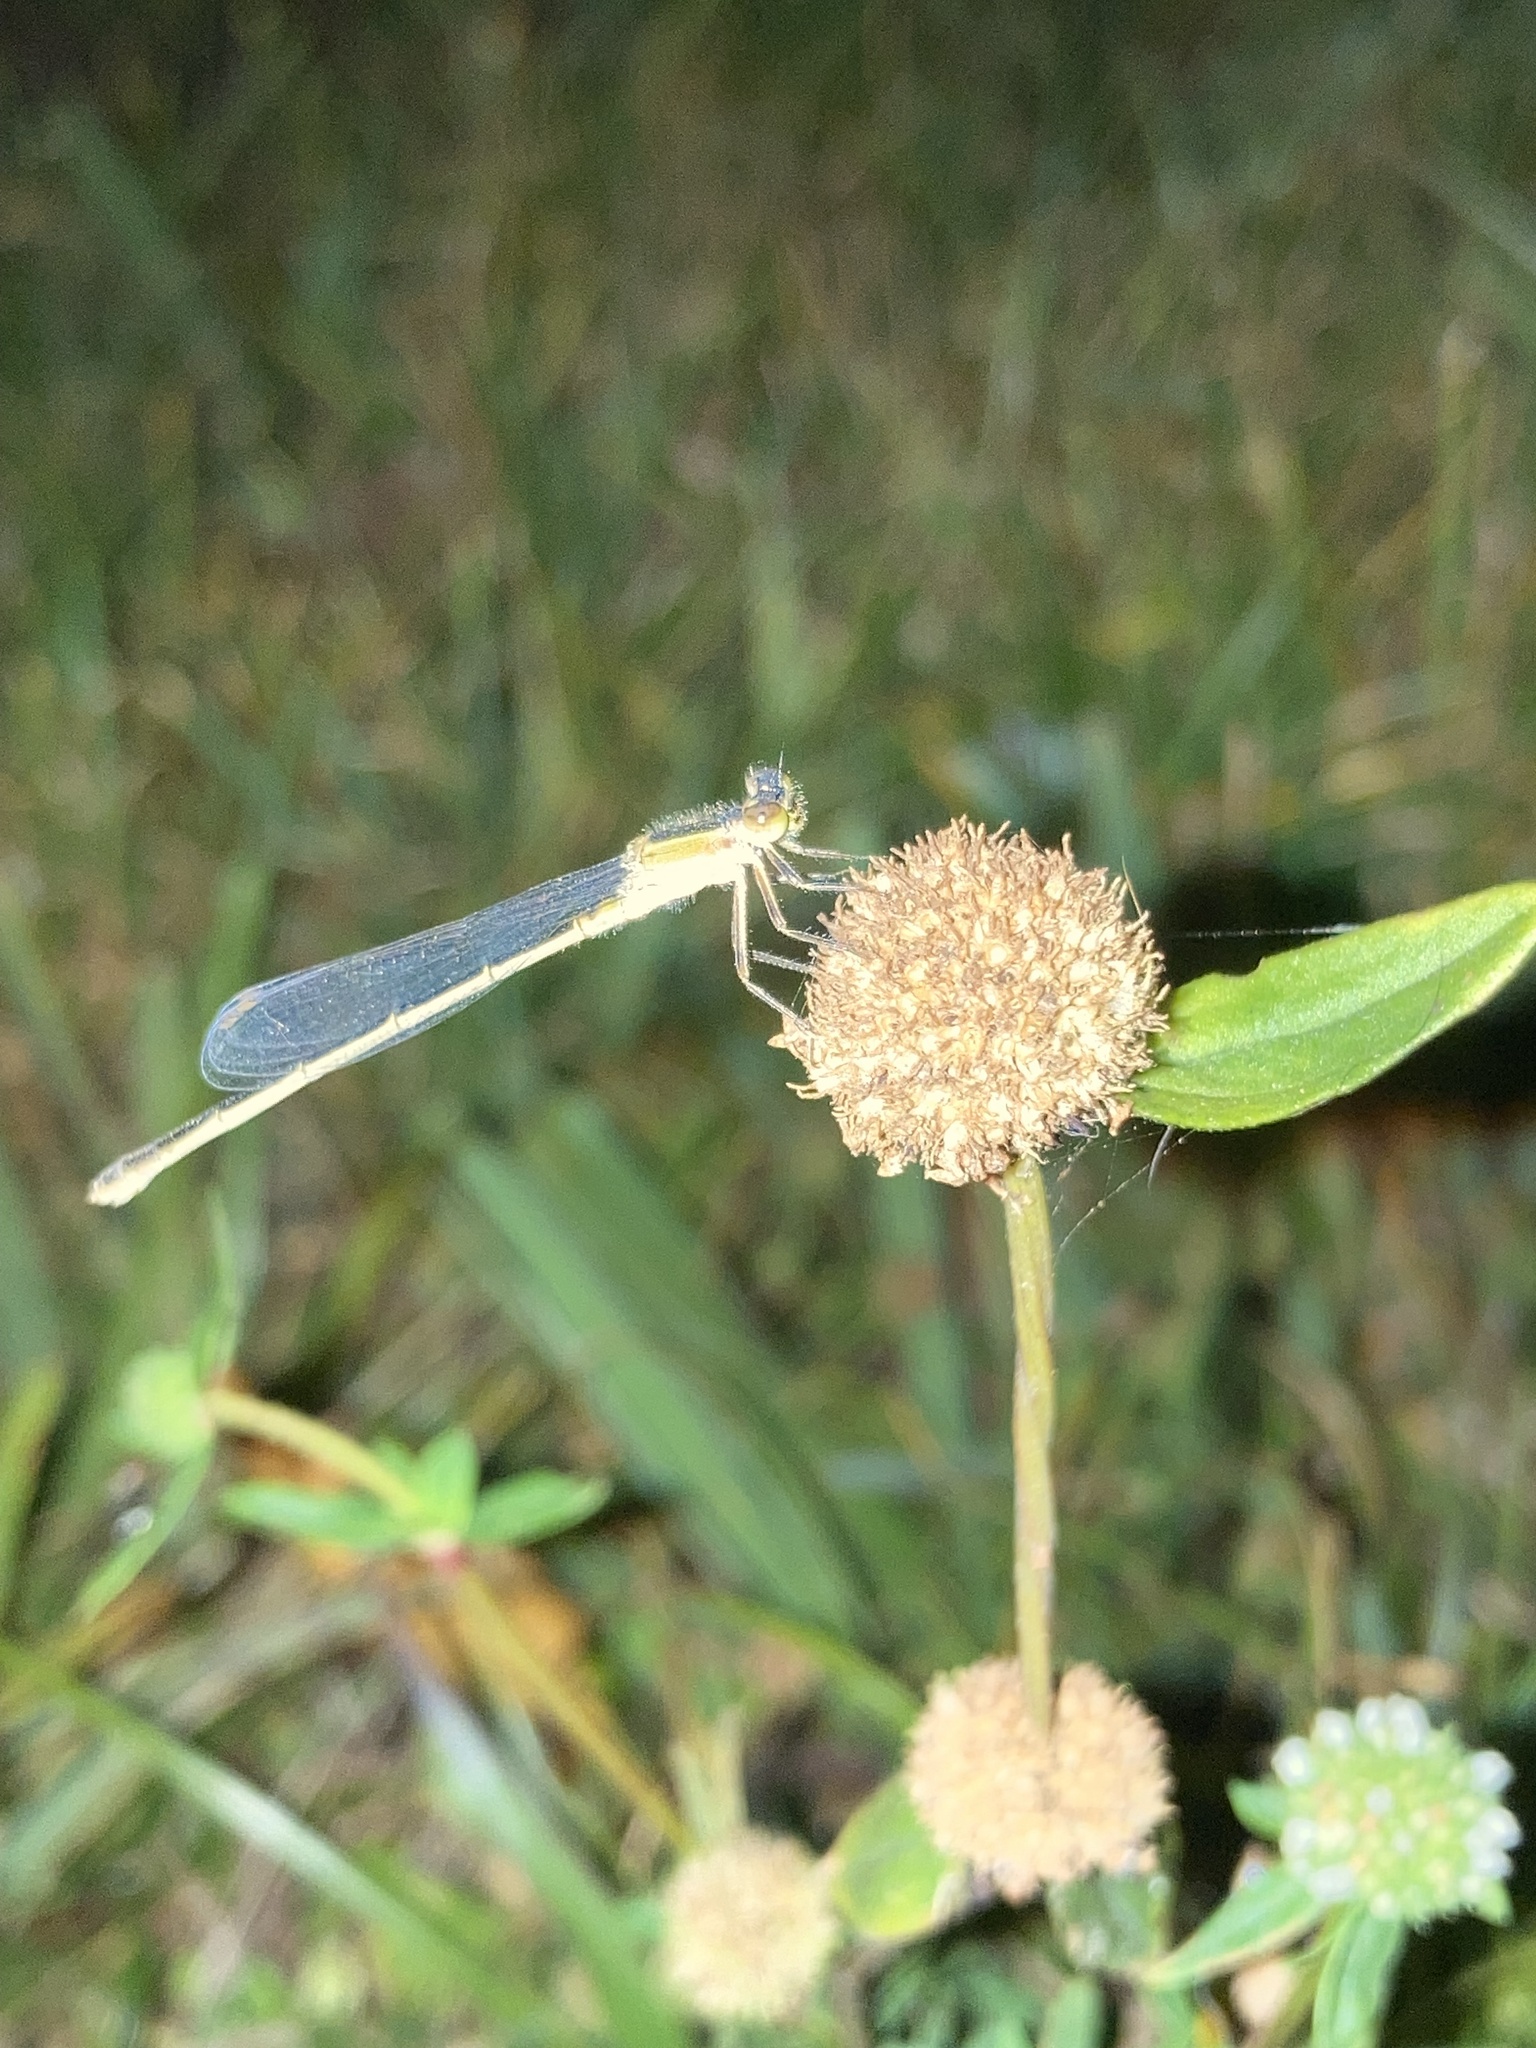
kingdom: Animalia
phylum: Arthropoda
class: Insecta
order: Odonata
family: Coenagrionidae
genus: Ischnura
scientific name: Ischnura ramburii
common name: Rambur's forktail
